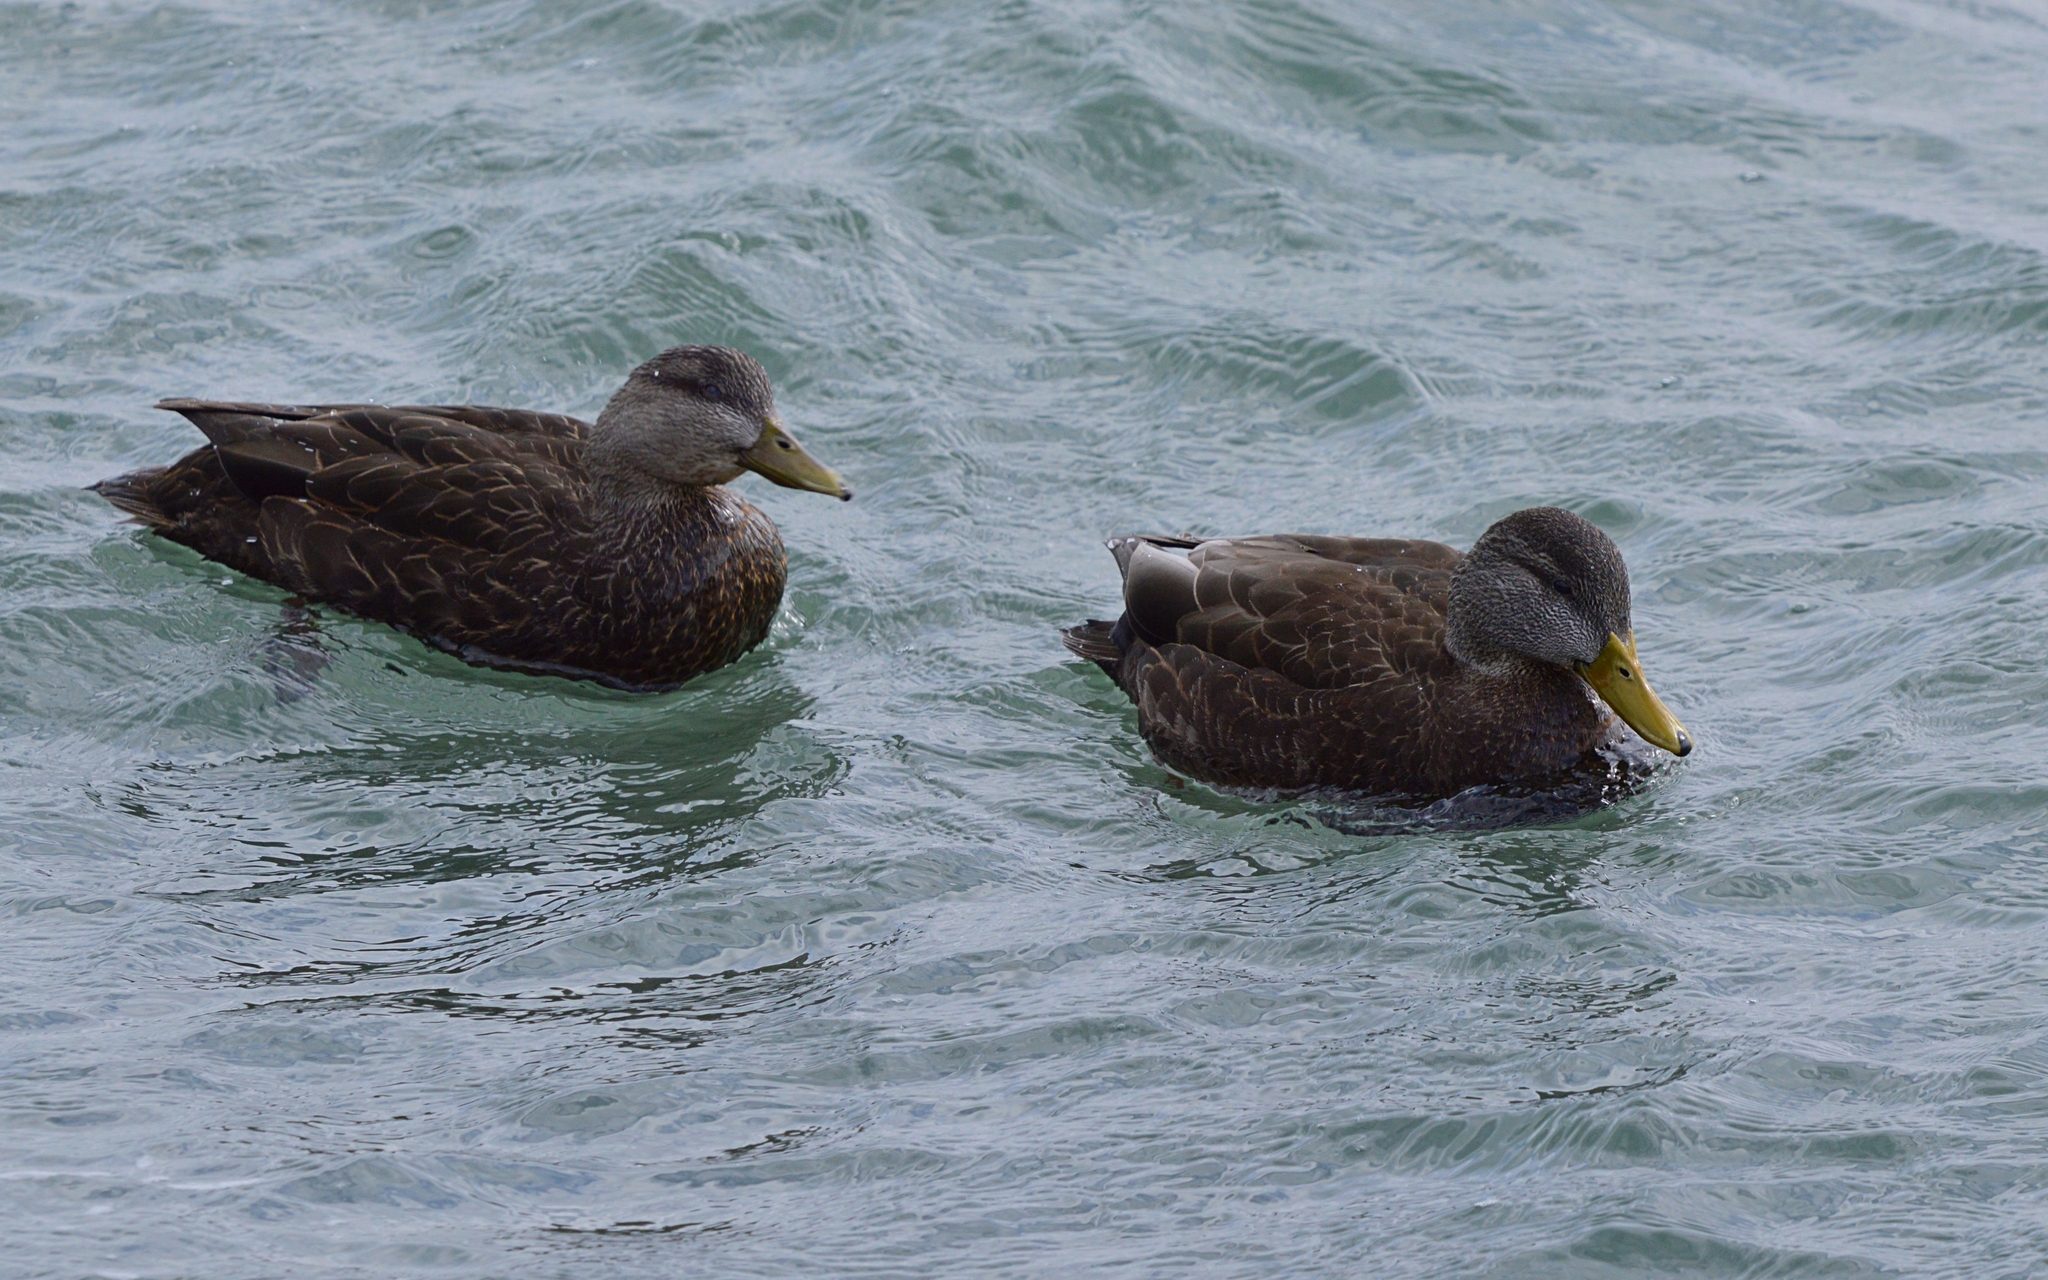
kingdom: Animalia
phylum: Chordata
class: Aves
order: Anseriformes
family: Anatidae
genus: Anas
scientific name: Anas rubripes
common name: American black duck
